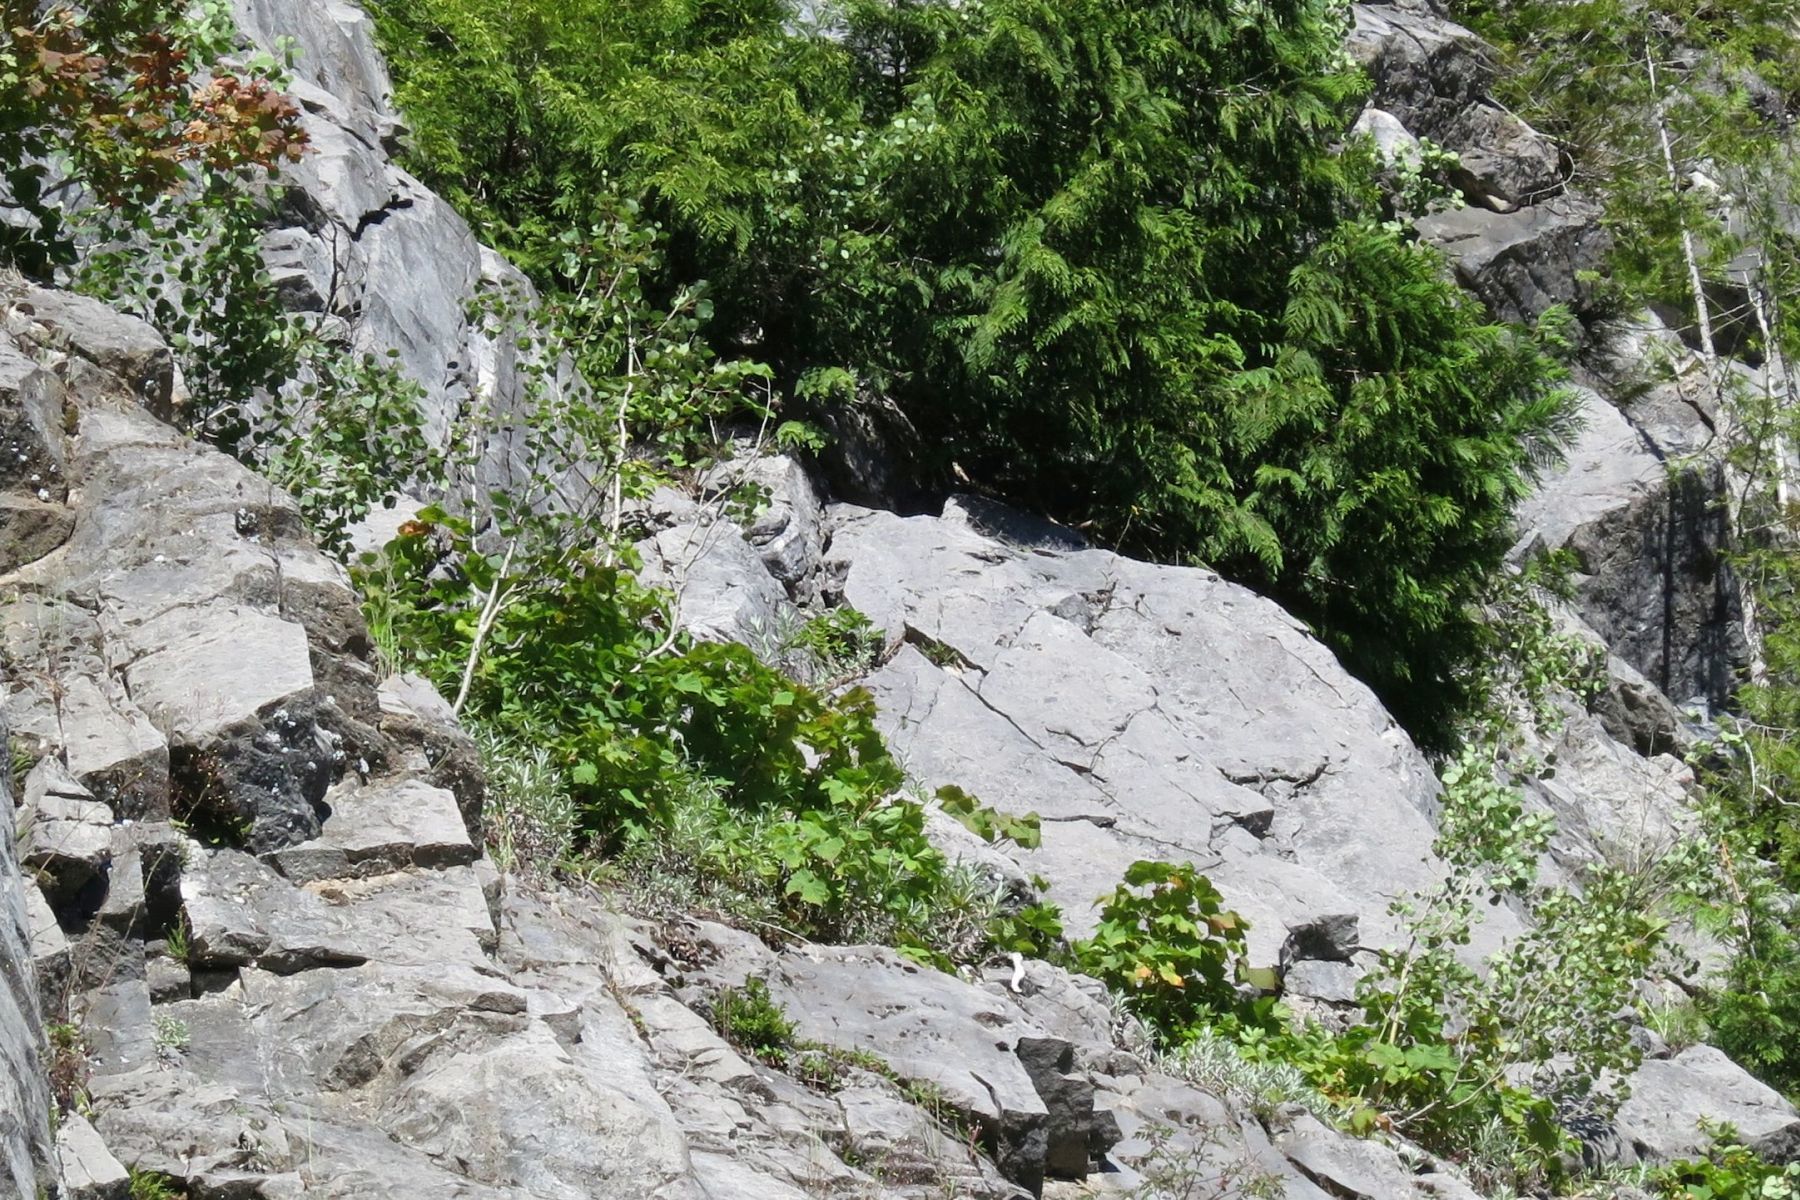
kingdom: Plantae
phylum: Tracheophyta
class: Magnoliopsida
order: Malpighiales
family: Salicaceae
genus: Populus
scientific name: Populus tremuloides
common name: Quaking aspen
